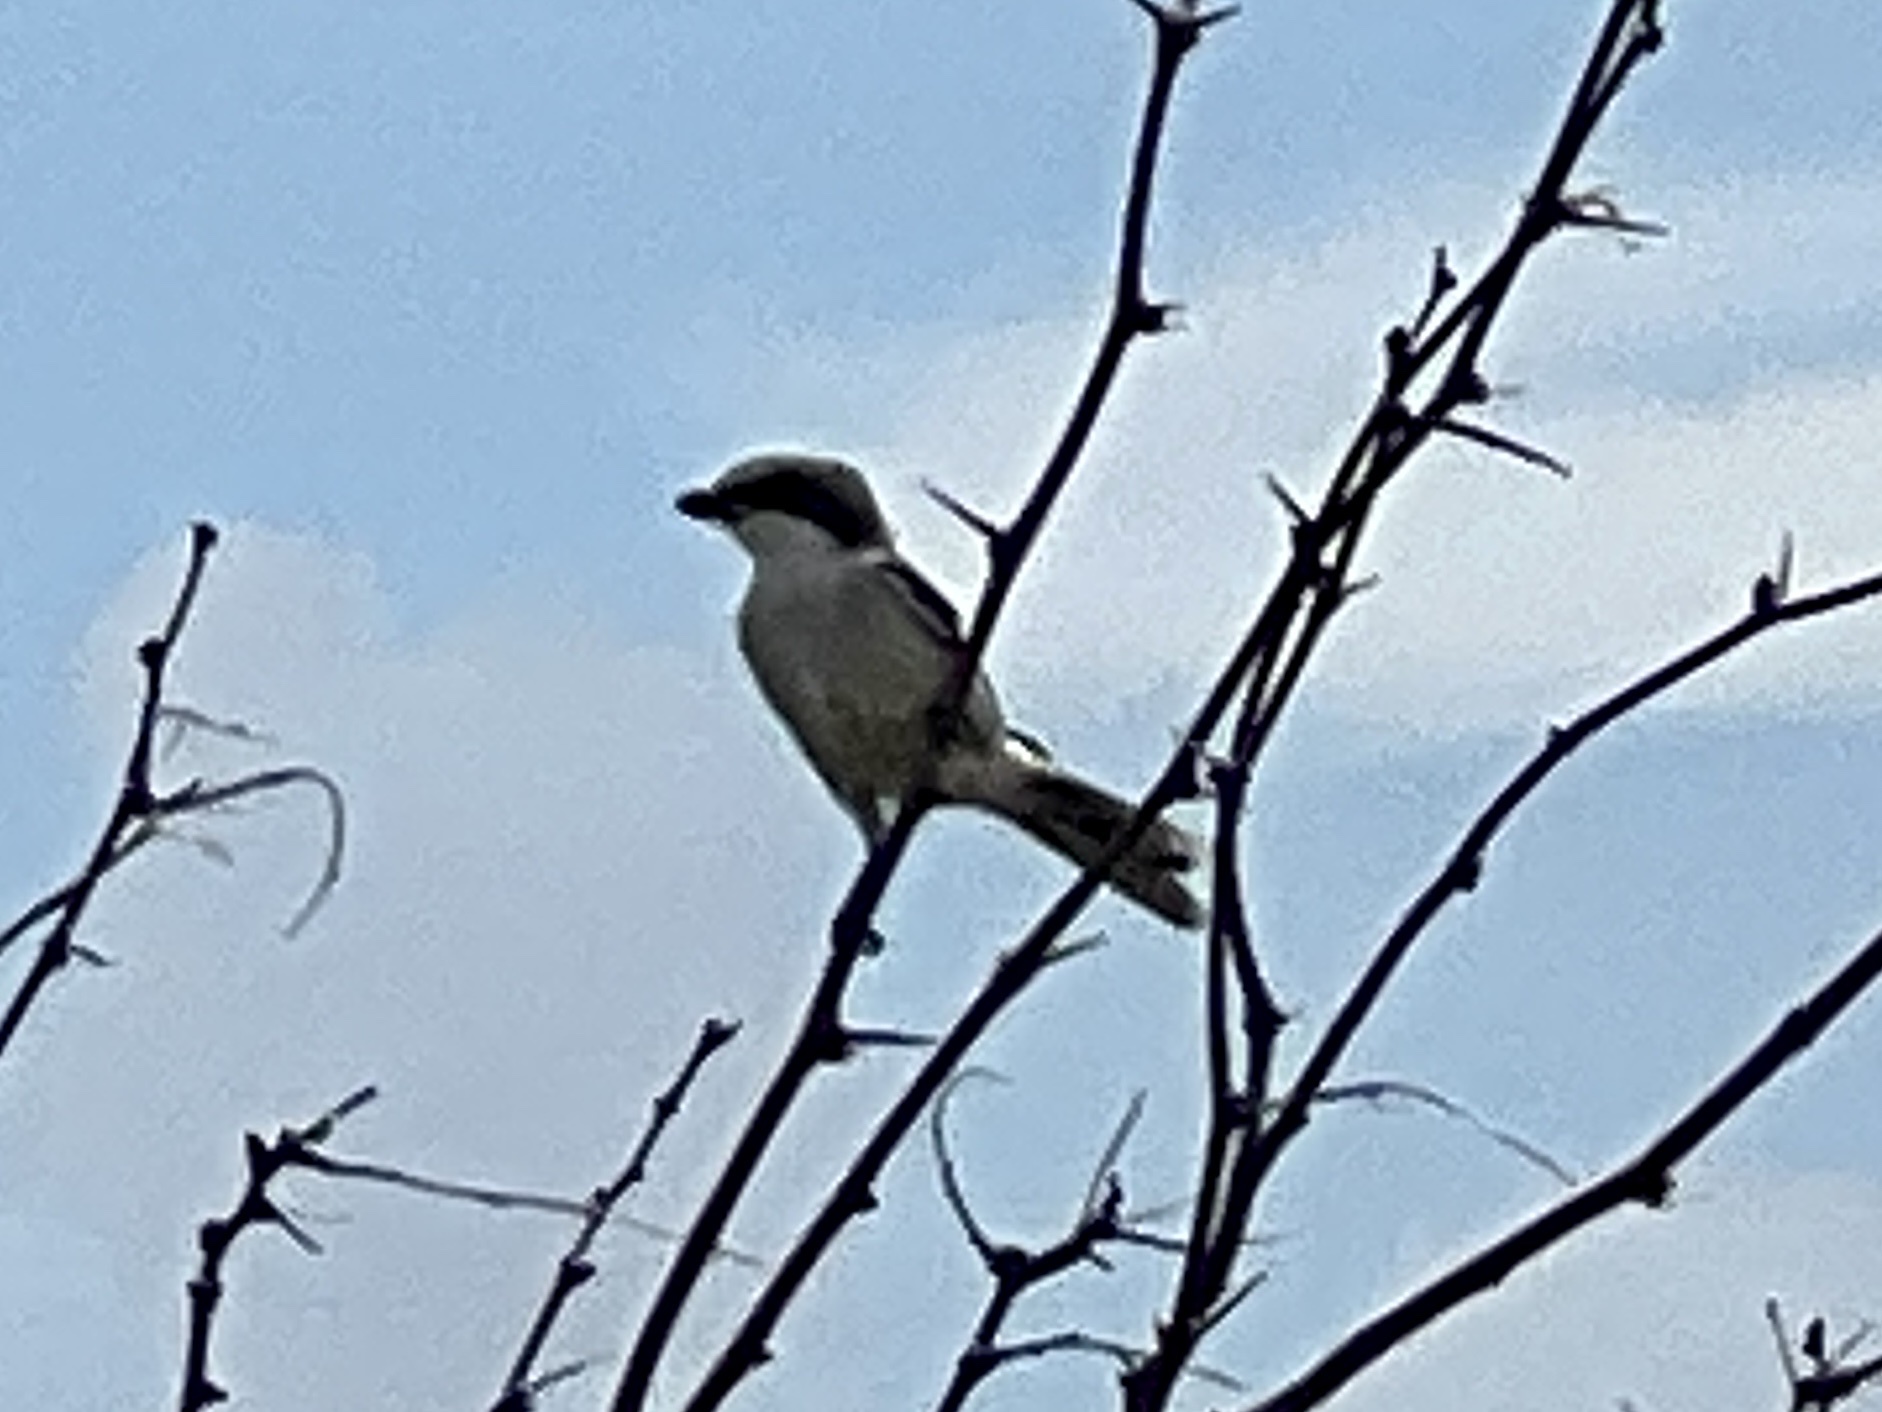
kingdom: Animalia
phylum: Chordata
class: Aves
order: Passeriformes
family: Laniidae
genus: Lanius
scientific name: Lanius ludovicianus
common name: Loggerhead shrike
